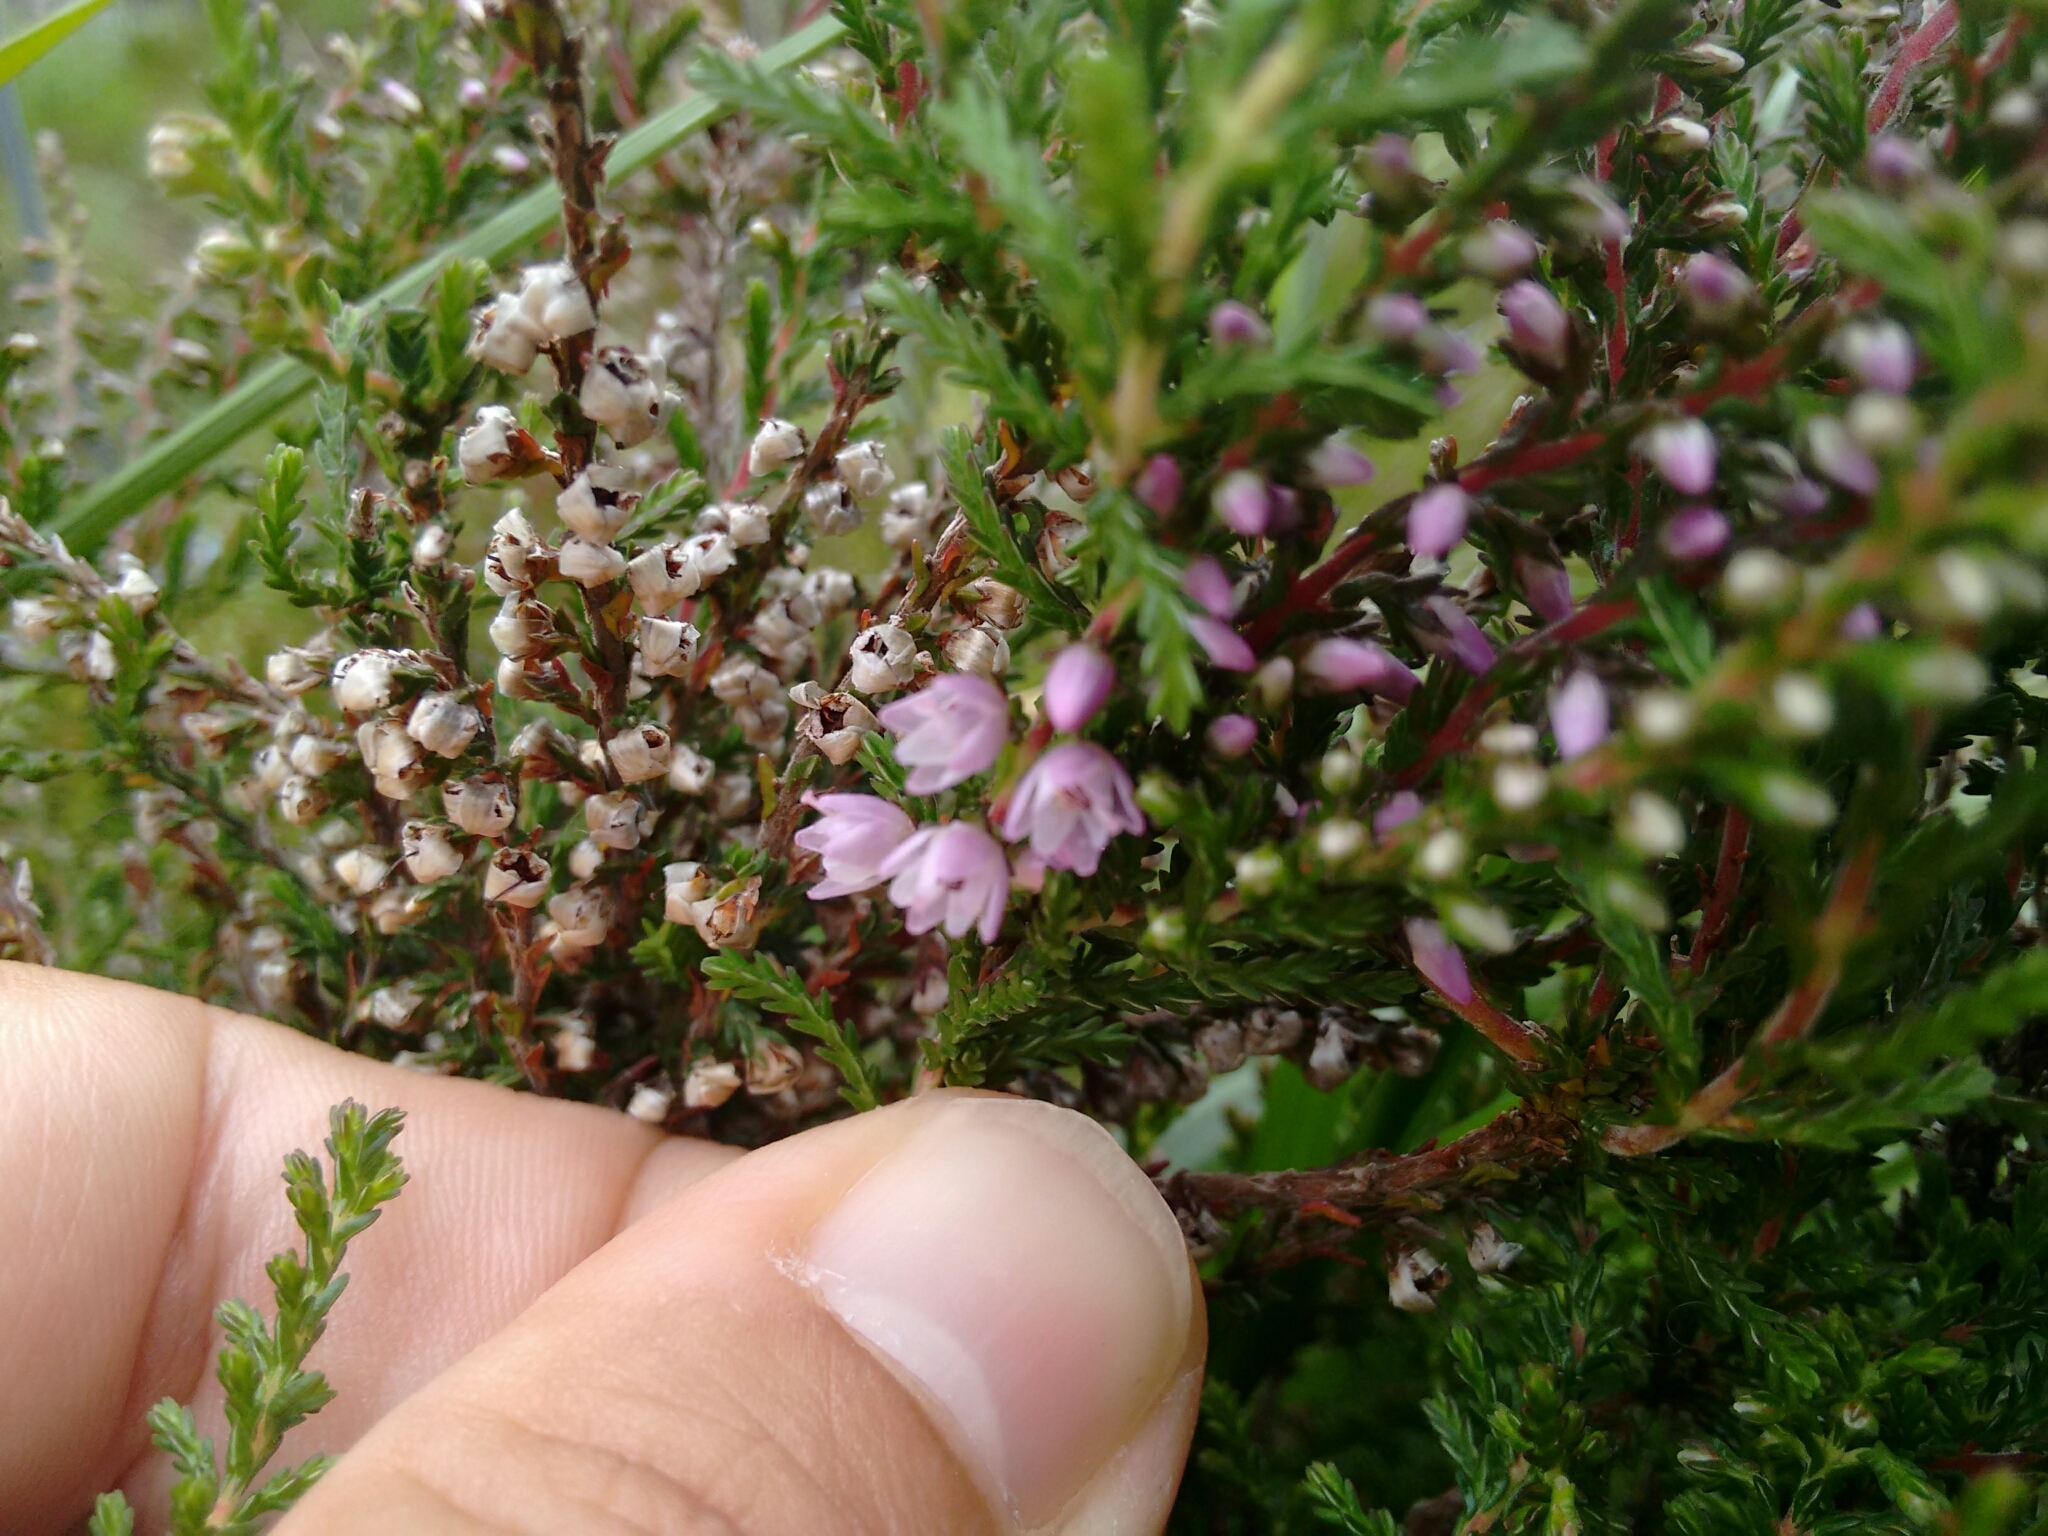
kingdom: Plantae
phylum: Tracheophyta
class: Magnoliopsida
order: Ericales
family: Ericaceae
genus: Calluna
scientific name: Calluna vulgaris
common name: Heather
